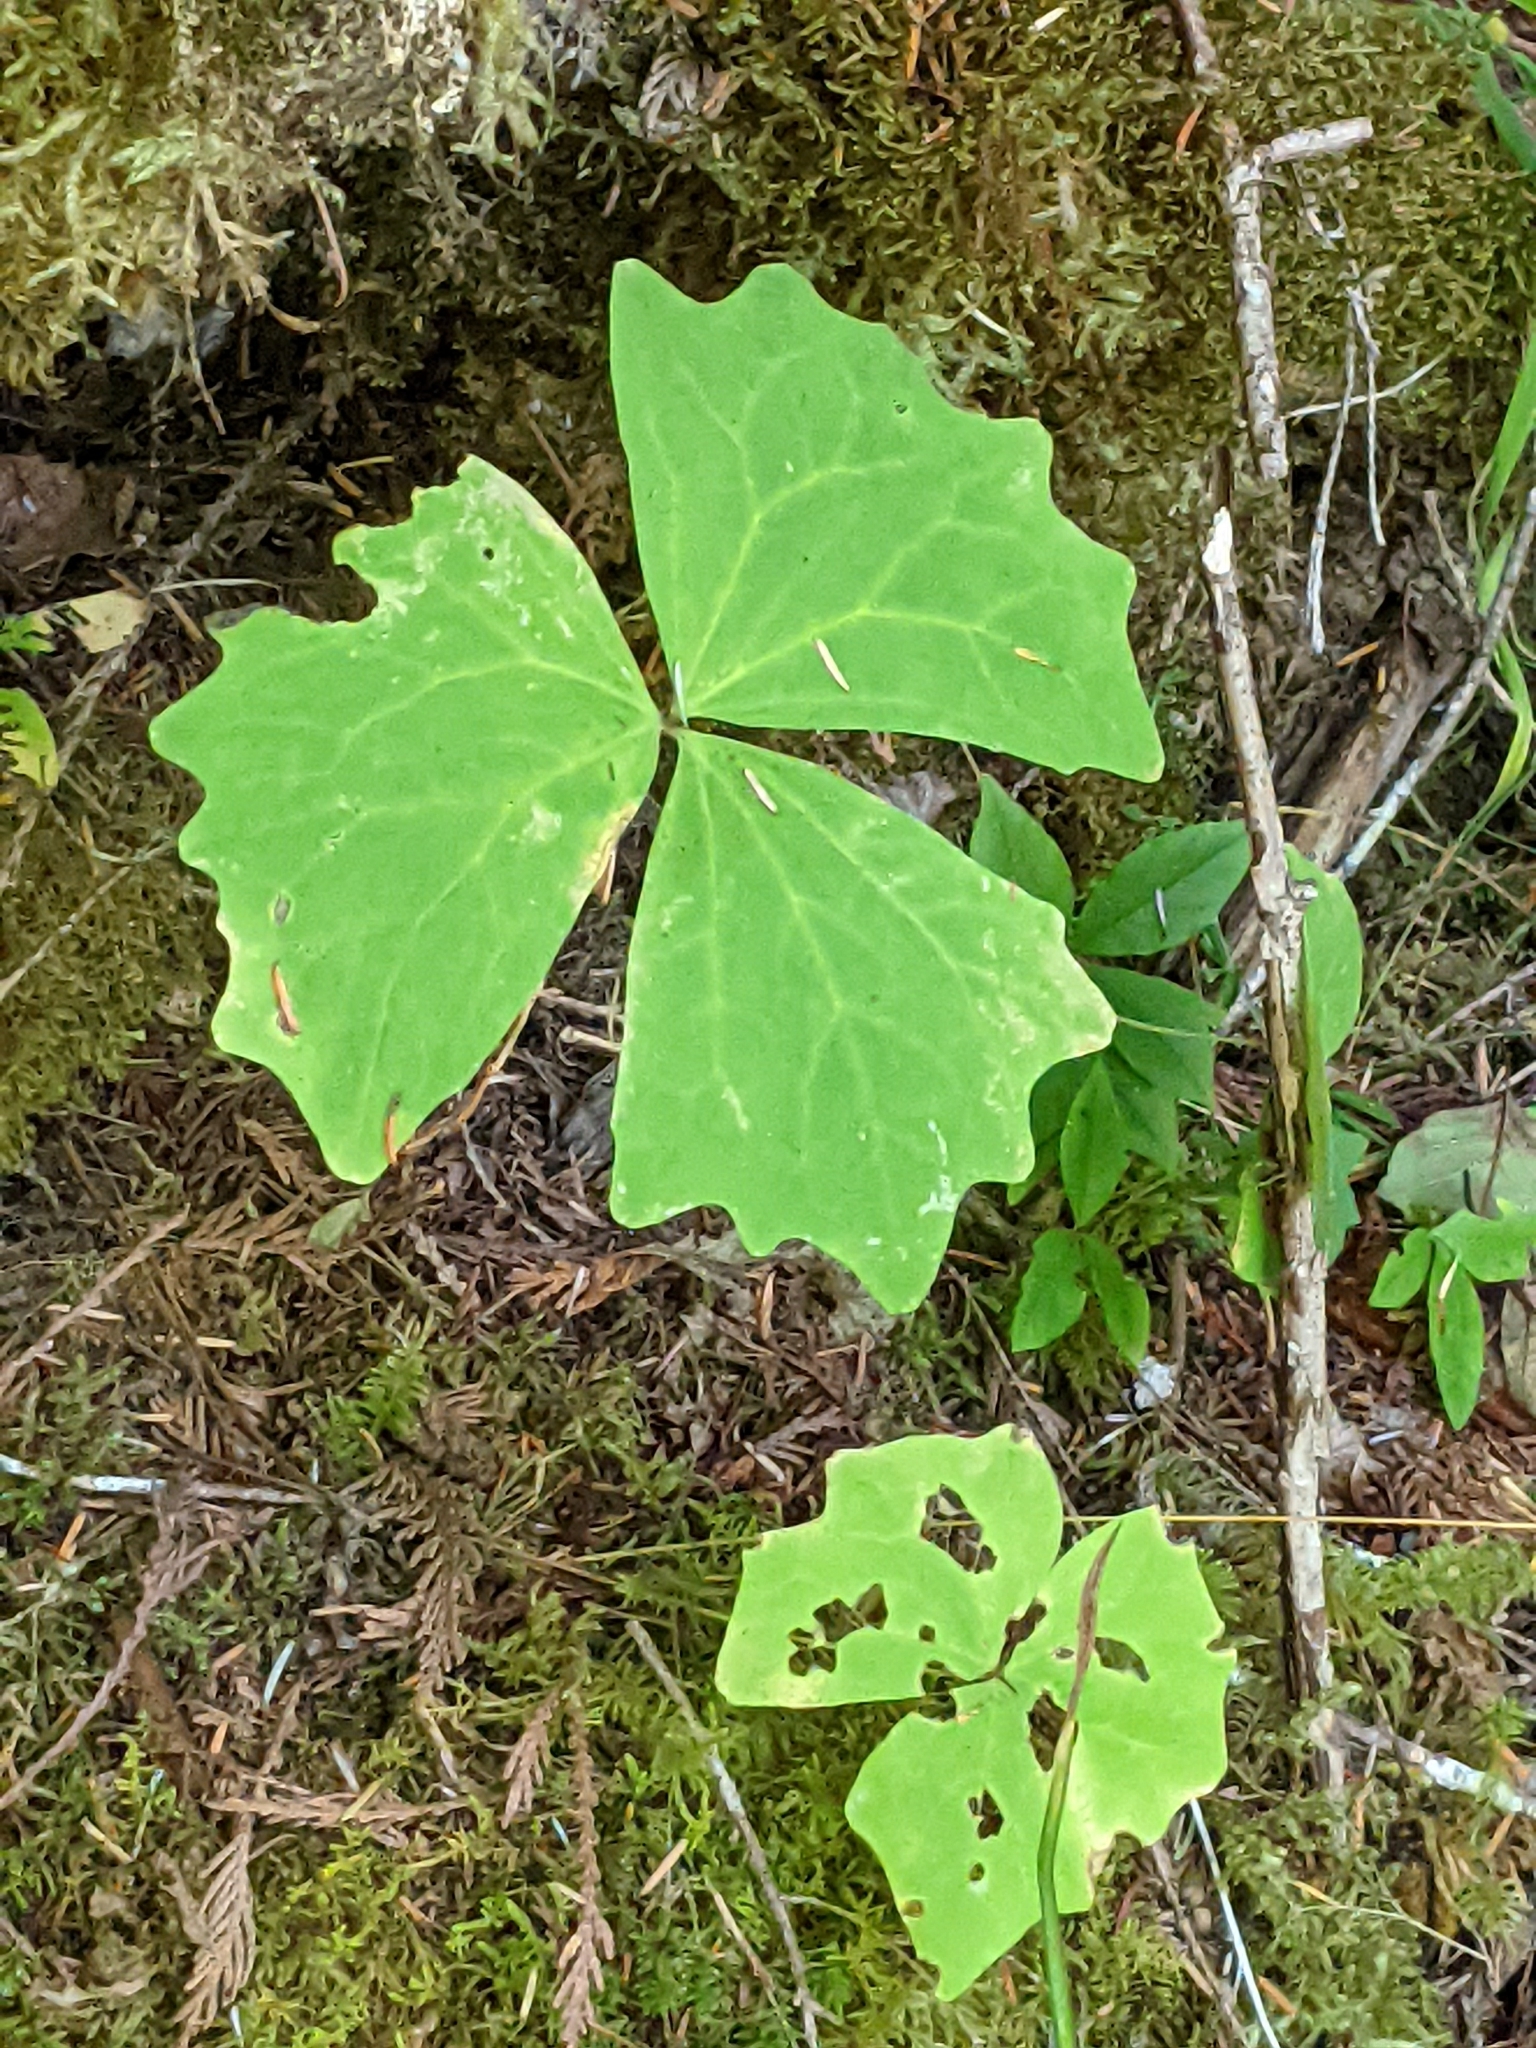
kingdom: Plantae
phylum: Tracheophyta
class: Magnoliopsida
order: Ranunculales
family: Berberidaceae
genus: Achlys
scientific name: Achlys triphylla
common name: Vanilla-leaf
